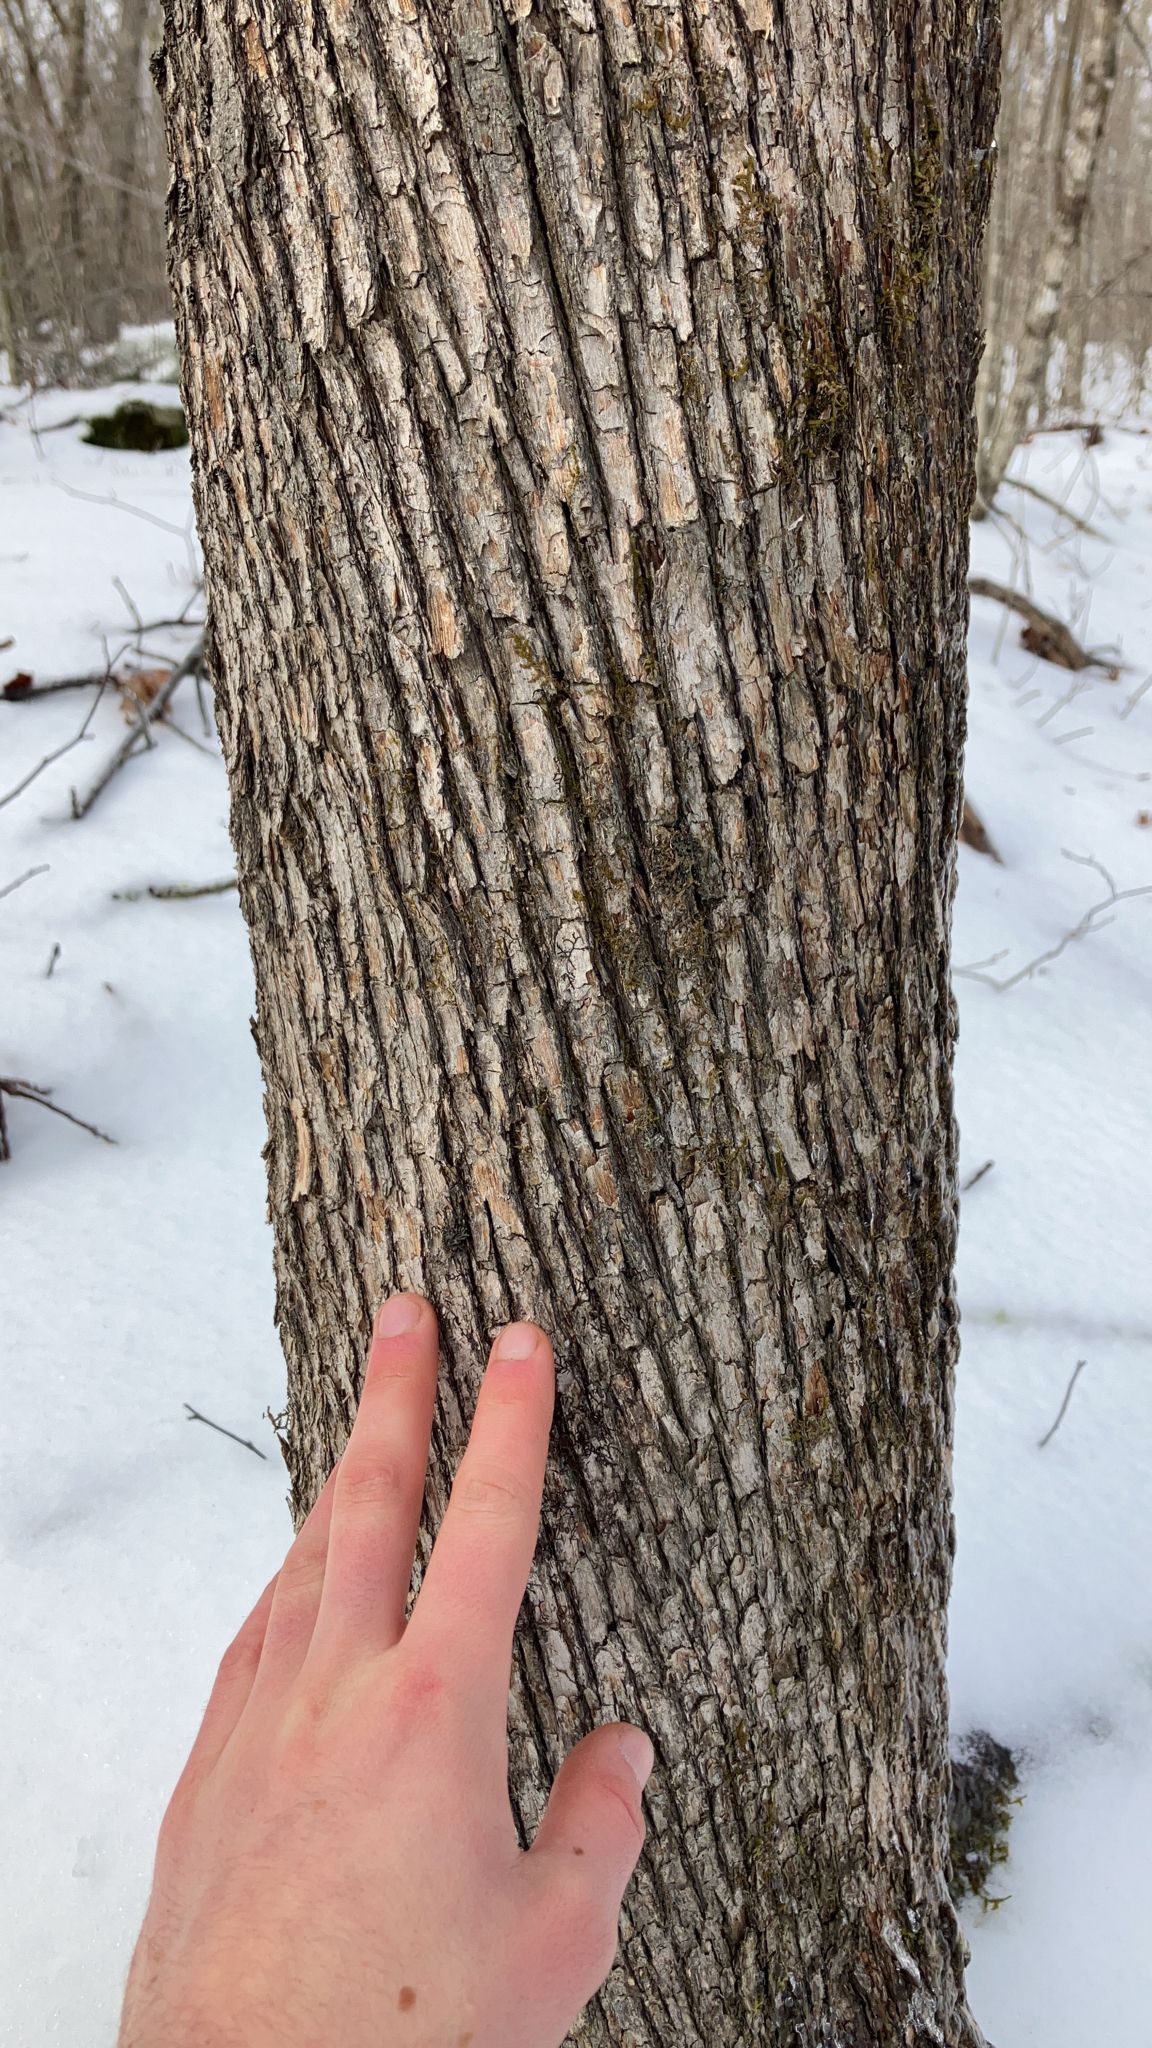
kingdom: Plantae
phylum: Tracheophyta
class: Magnoliopsida
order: Fagales
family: Betulaceae
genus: Ostrya
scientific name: Ostrya virginiana
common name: Ironwood
